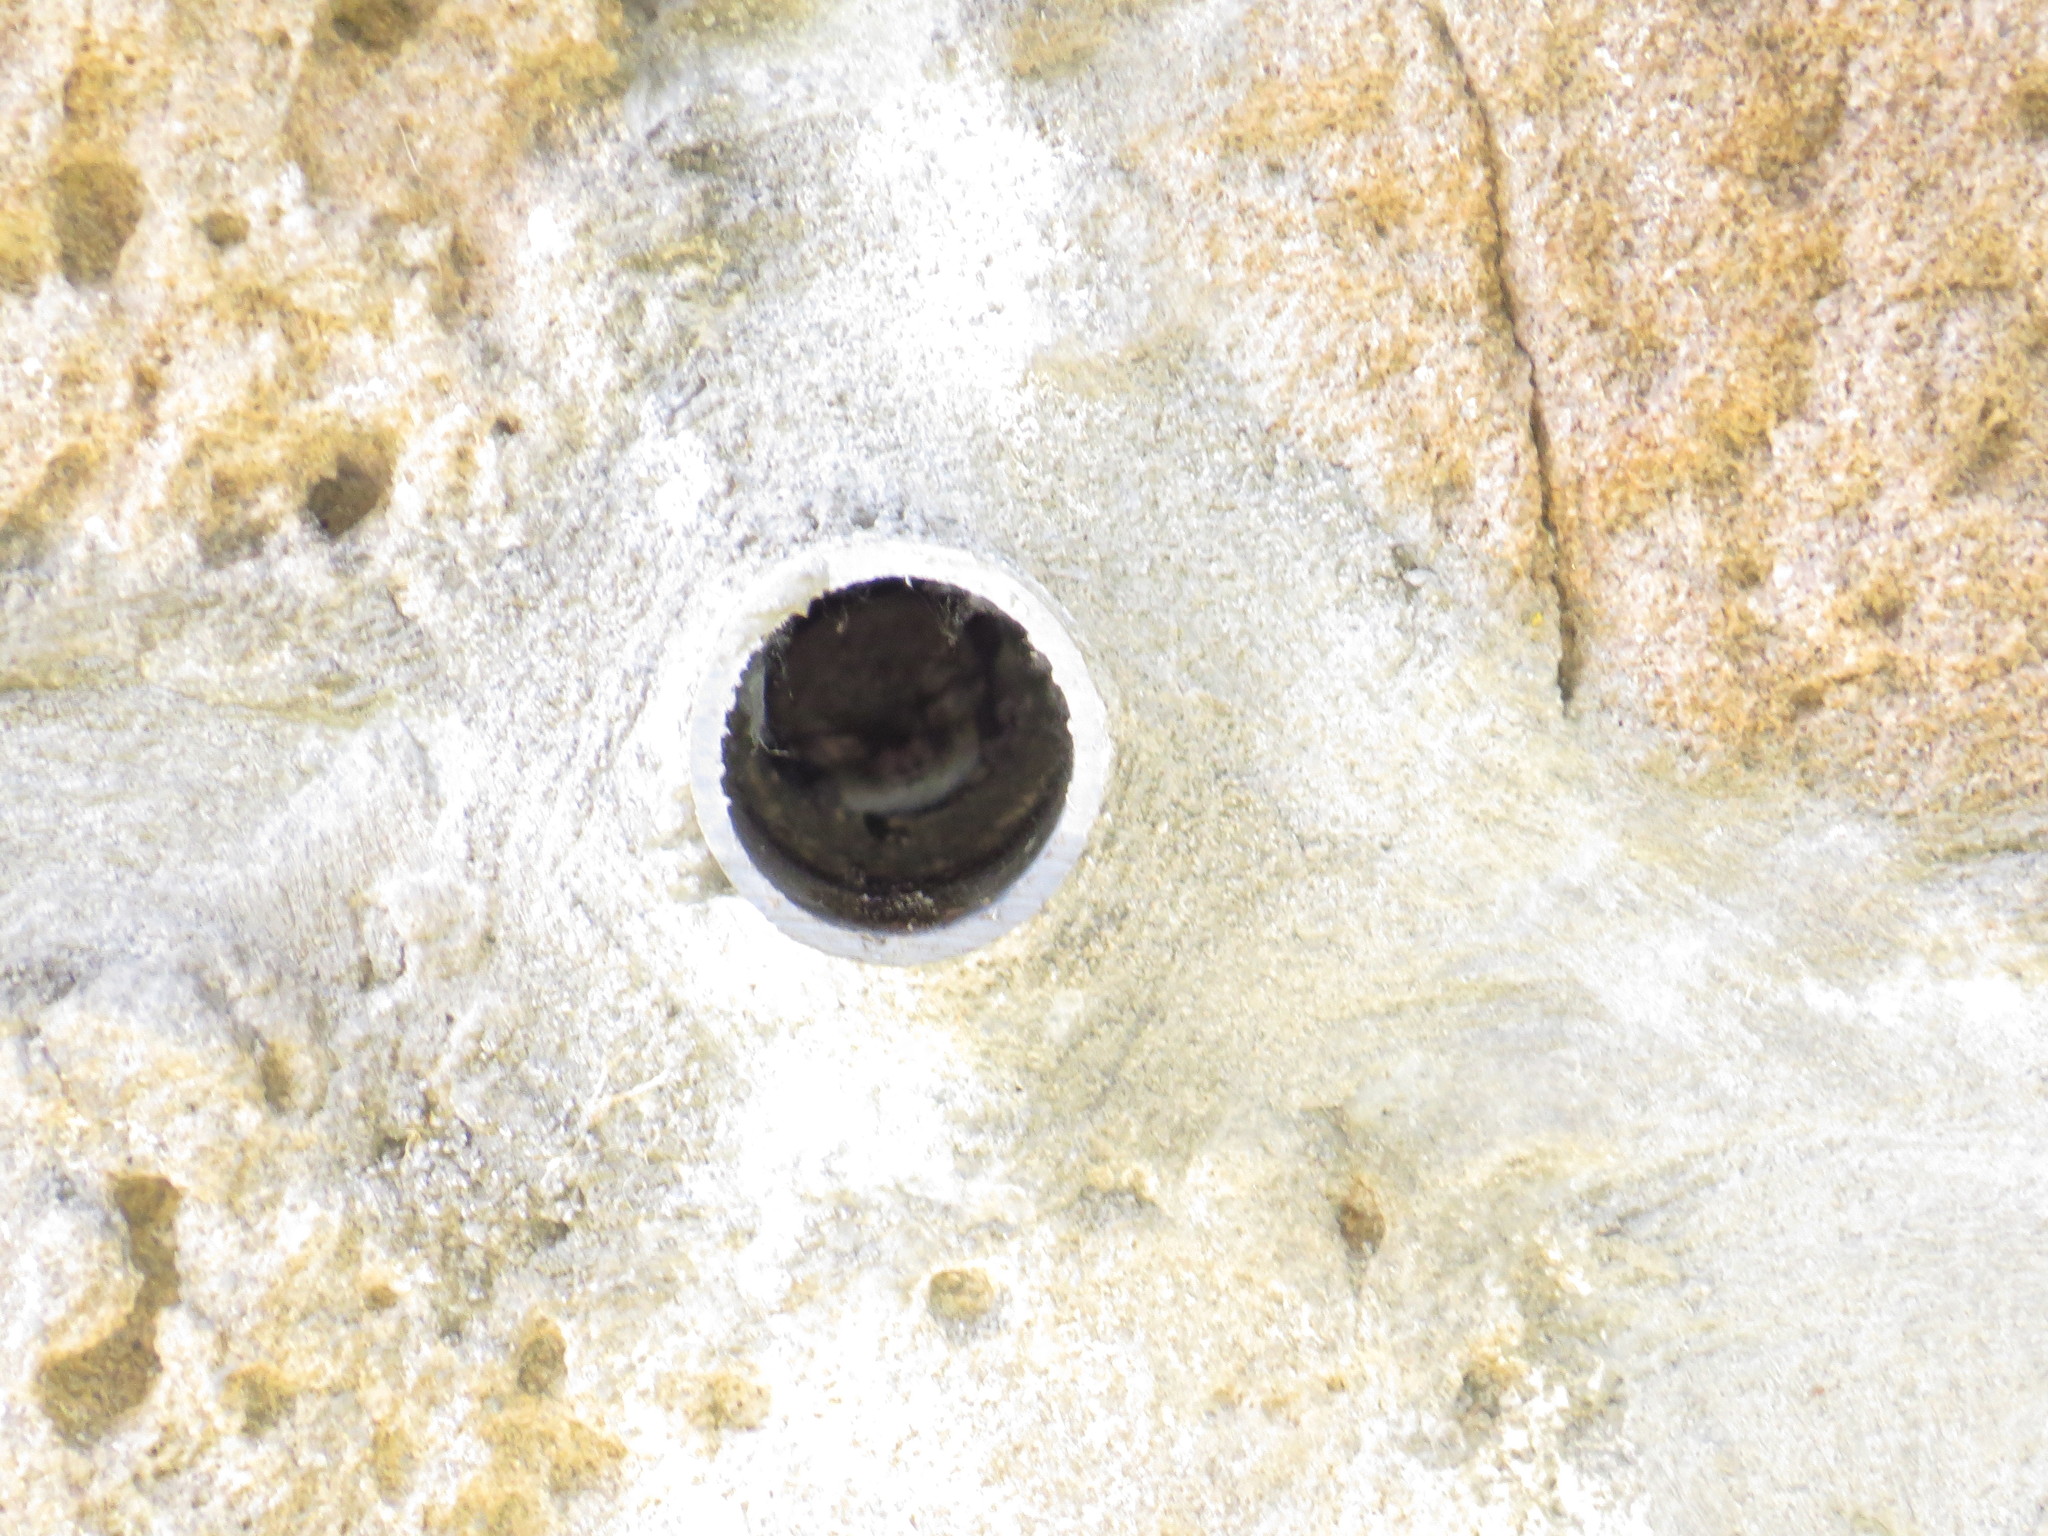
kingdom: Animalia
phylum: Chordata
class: Mammalia
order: Chiroptera
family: Vespertilionidae
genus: Myotis
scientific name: Myotis crypticus
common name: Cryptic myotis
